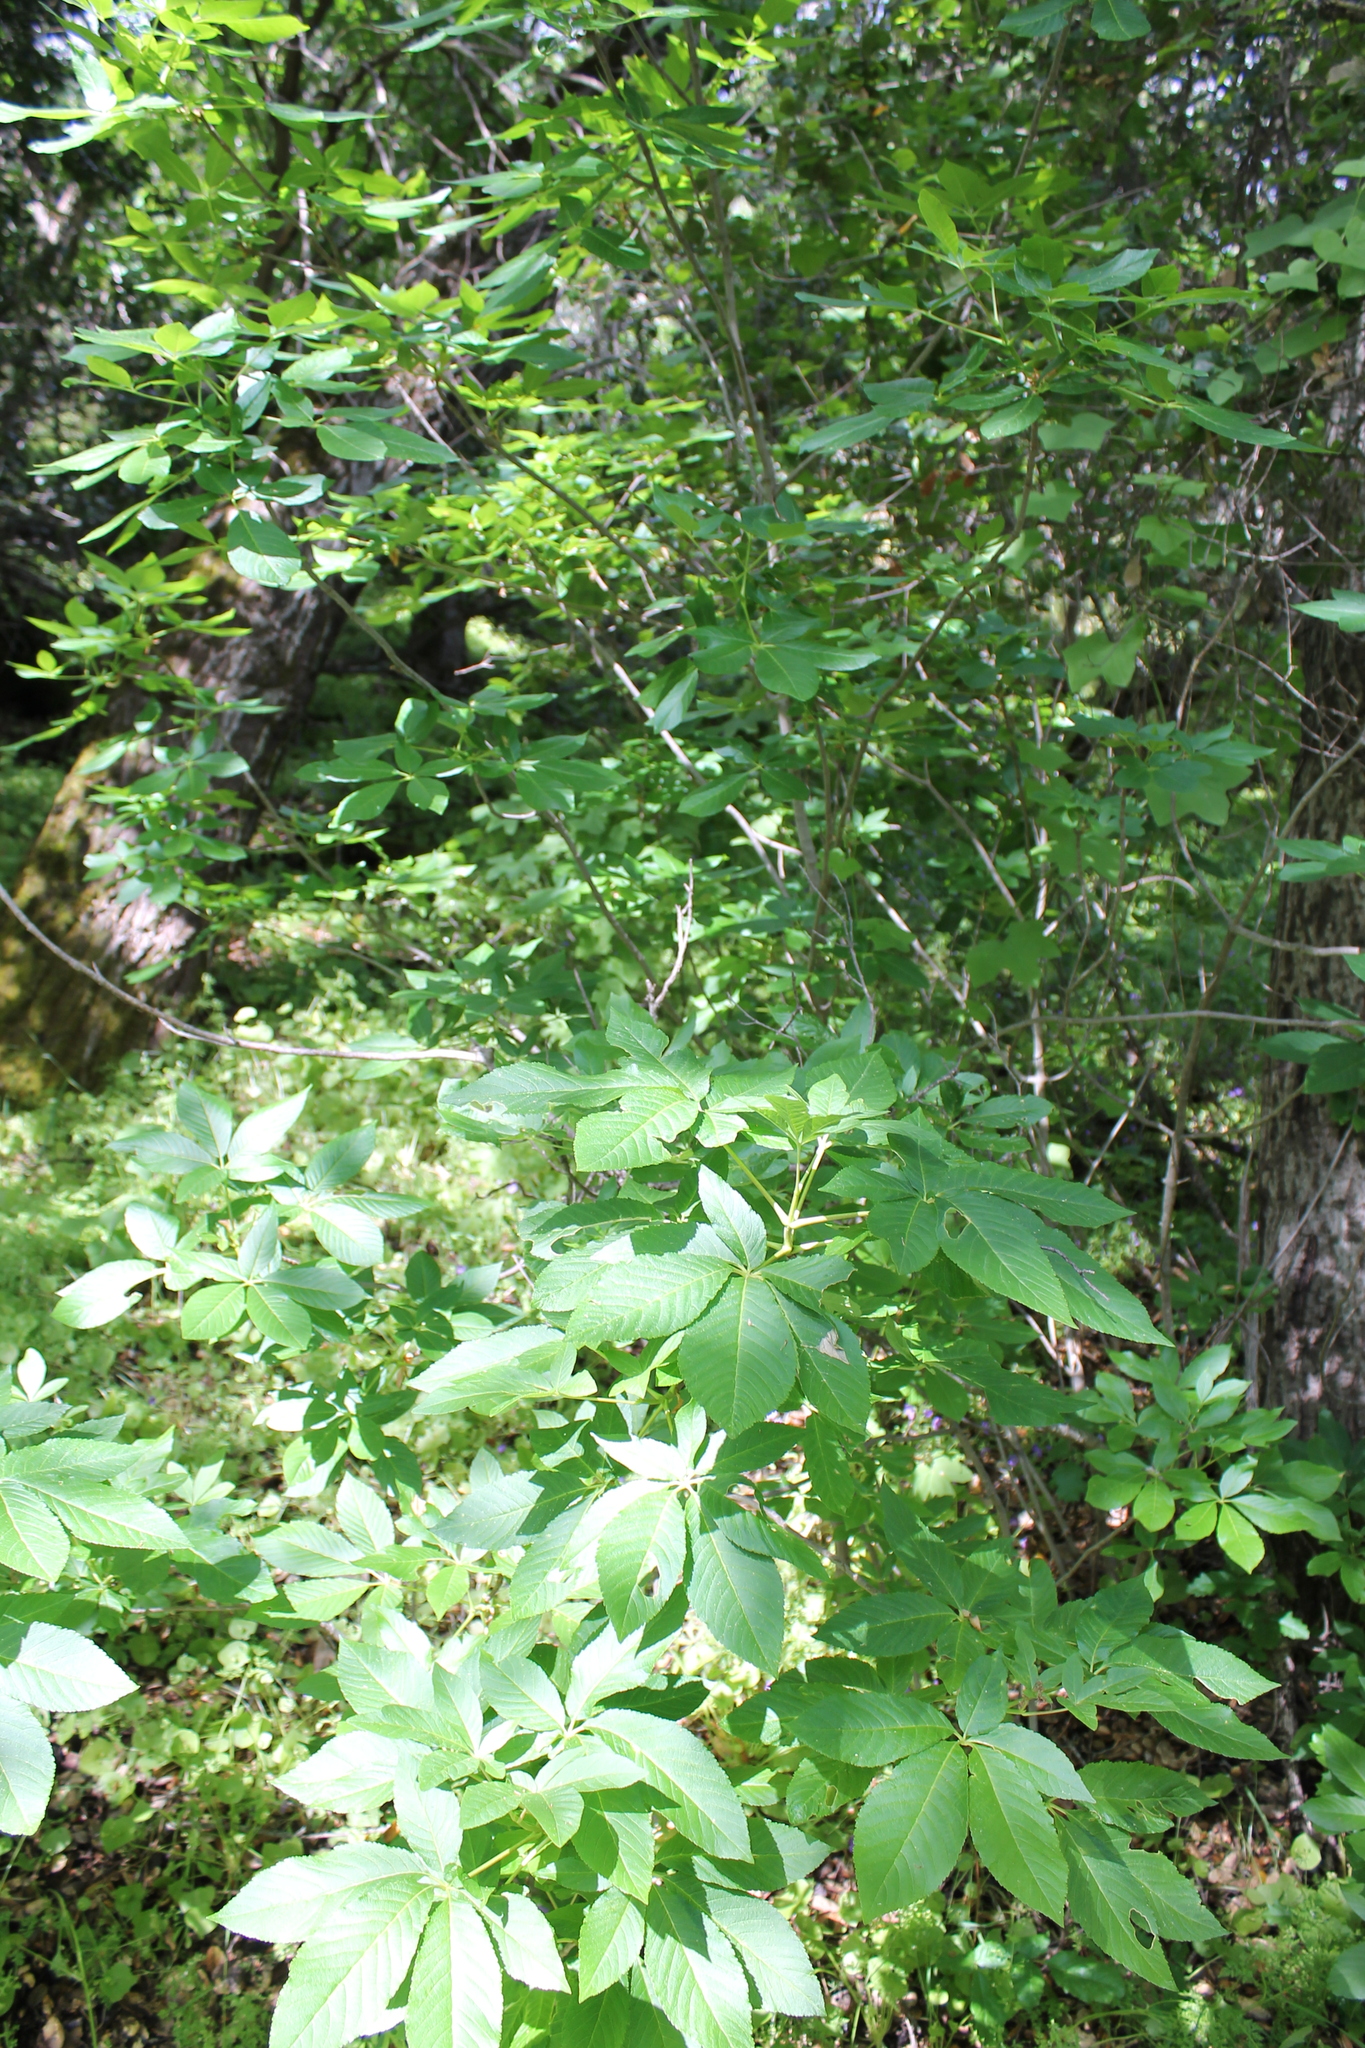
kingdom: Plantae
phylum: Tracheophyta
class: Magnoliopsida
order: Sapindales
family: Sapindaceae
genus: Aesculus
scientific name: Aesculus californica
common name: California buckeye
